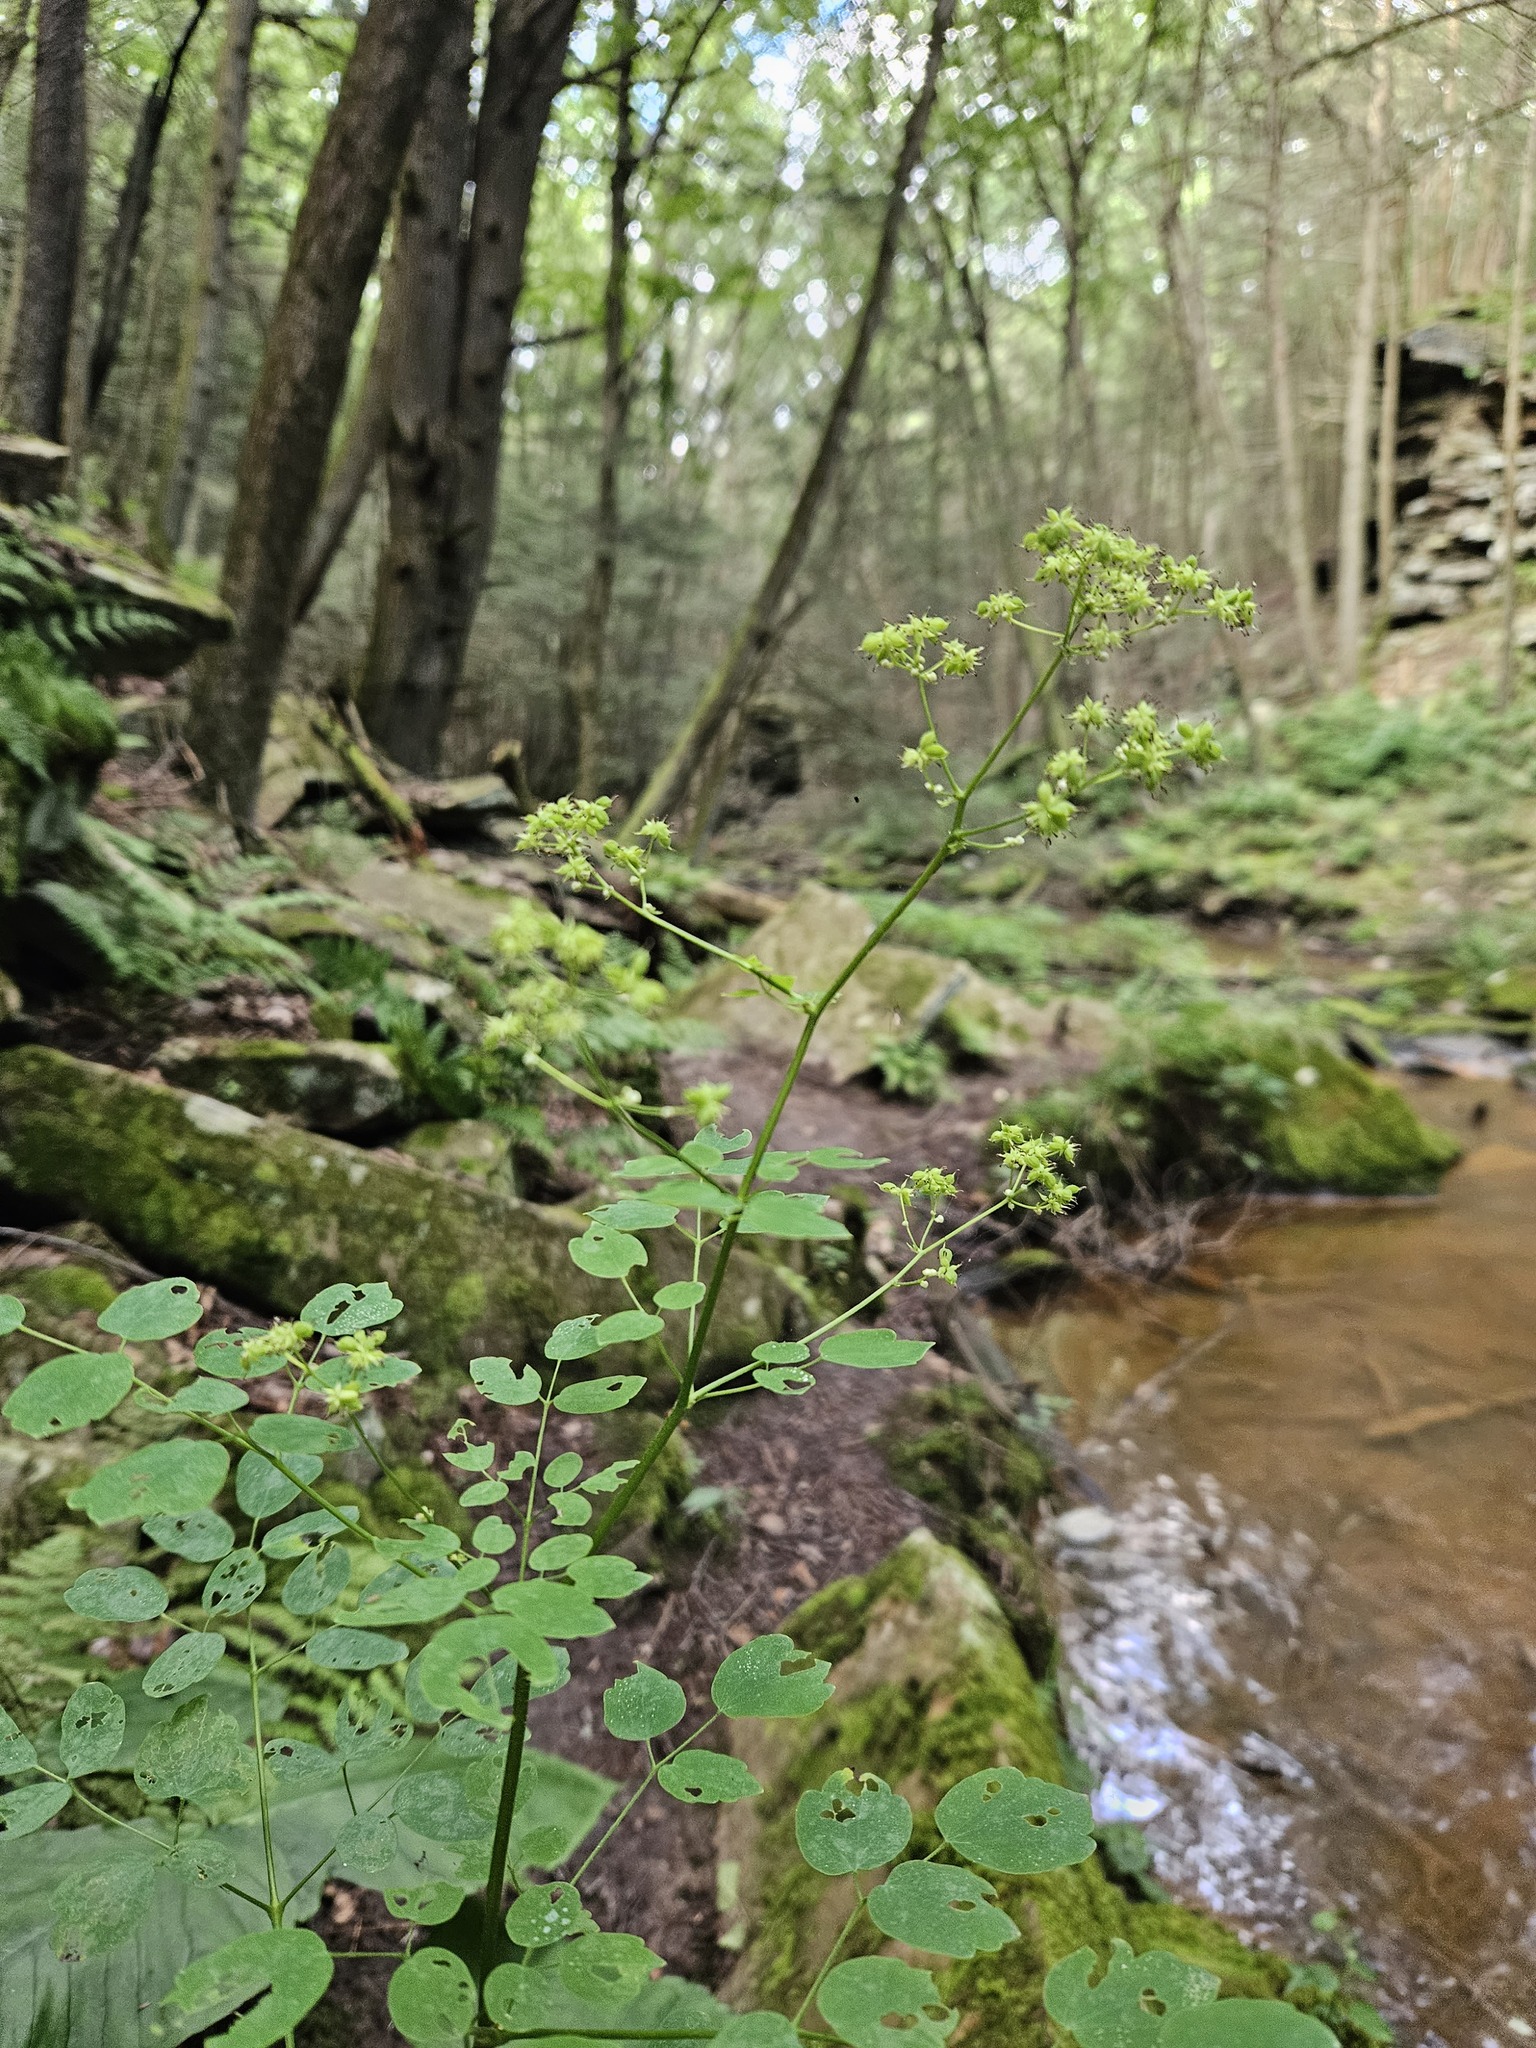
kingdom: Plantae
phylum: Tracheophyta
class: Magnoliopsida
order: Ranunculales
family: Ranunculaceae
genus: Thalictrum
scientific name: Thalictrum pubescens
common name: King-of-the-meadow
